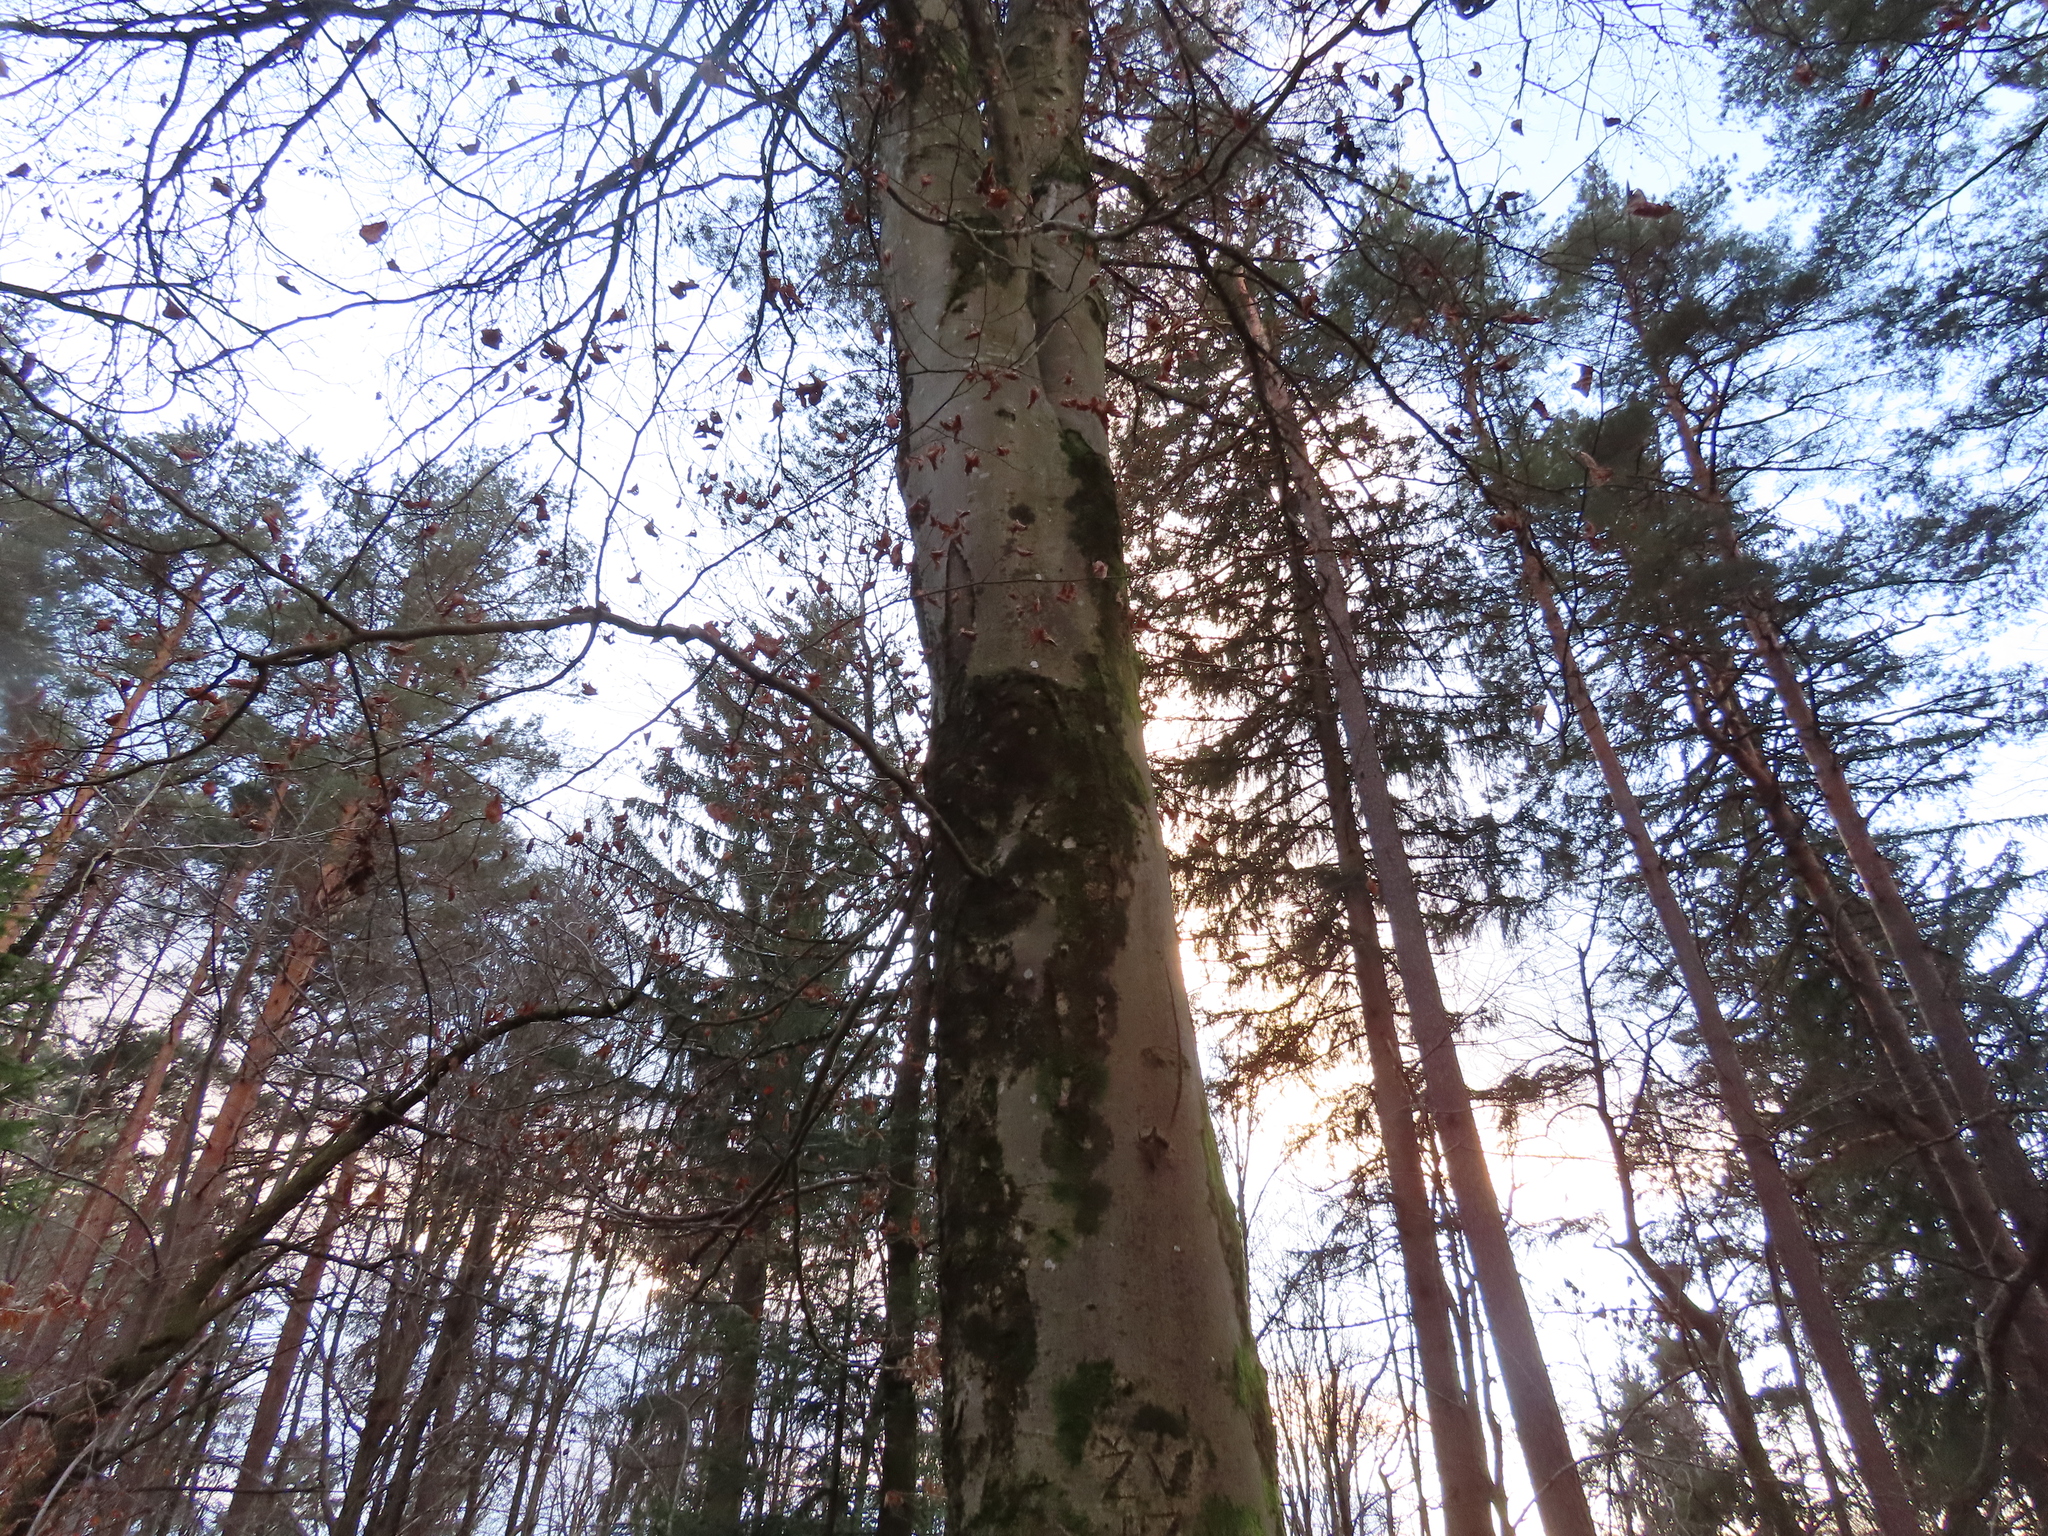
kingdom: Plantae
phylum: Tracheophyta
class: Magnoliopsida
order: Fagales
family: Fagaceae
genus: Fagus
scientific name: Fagus sylvatica
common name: Beech
